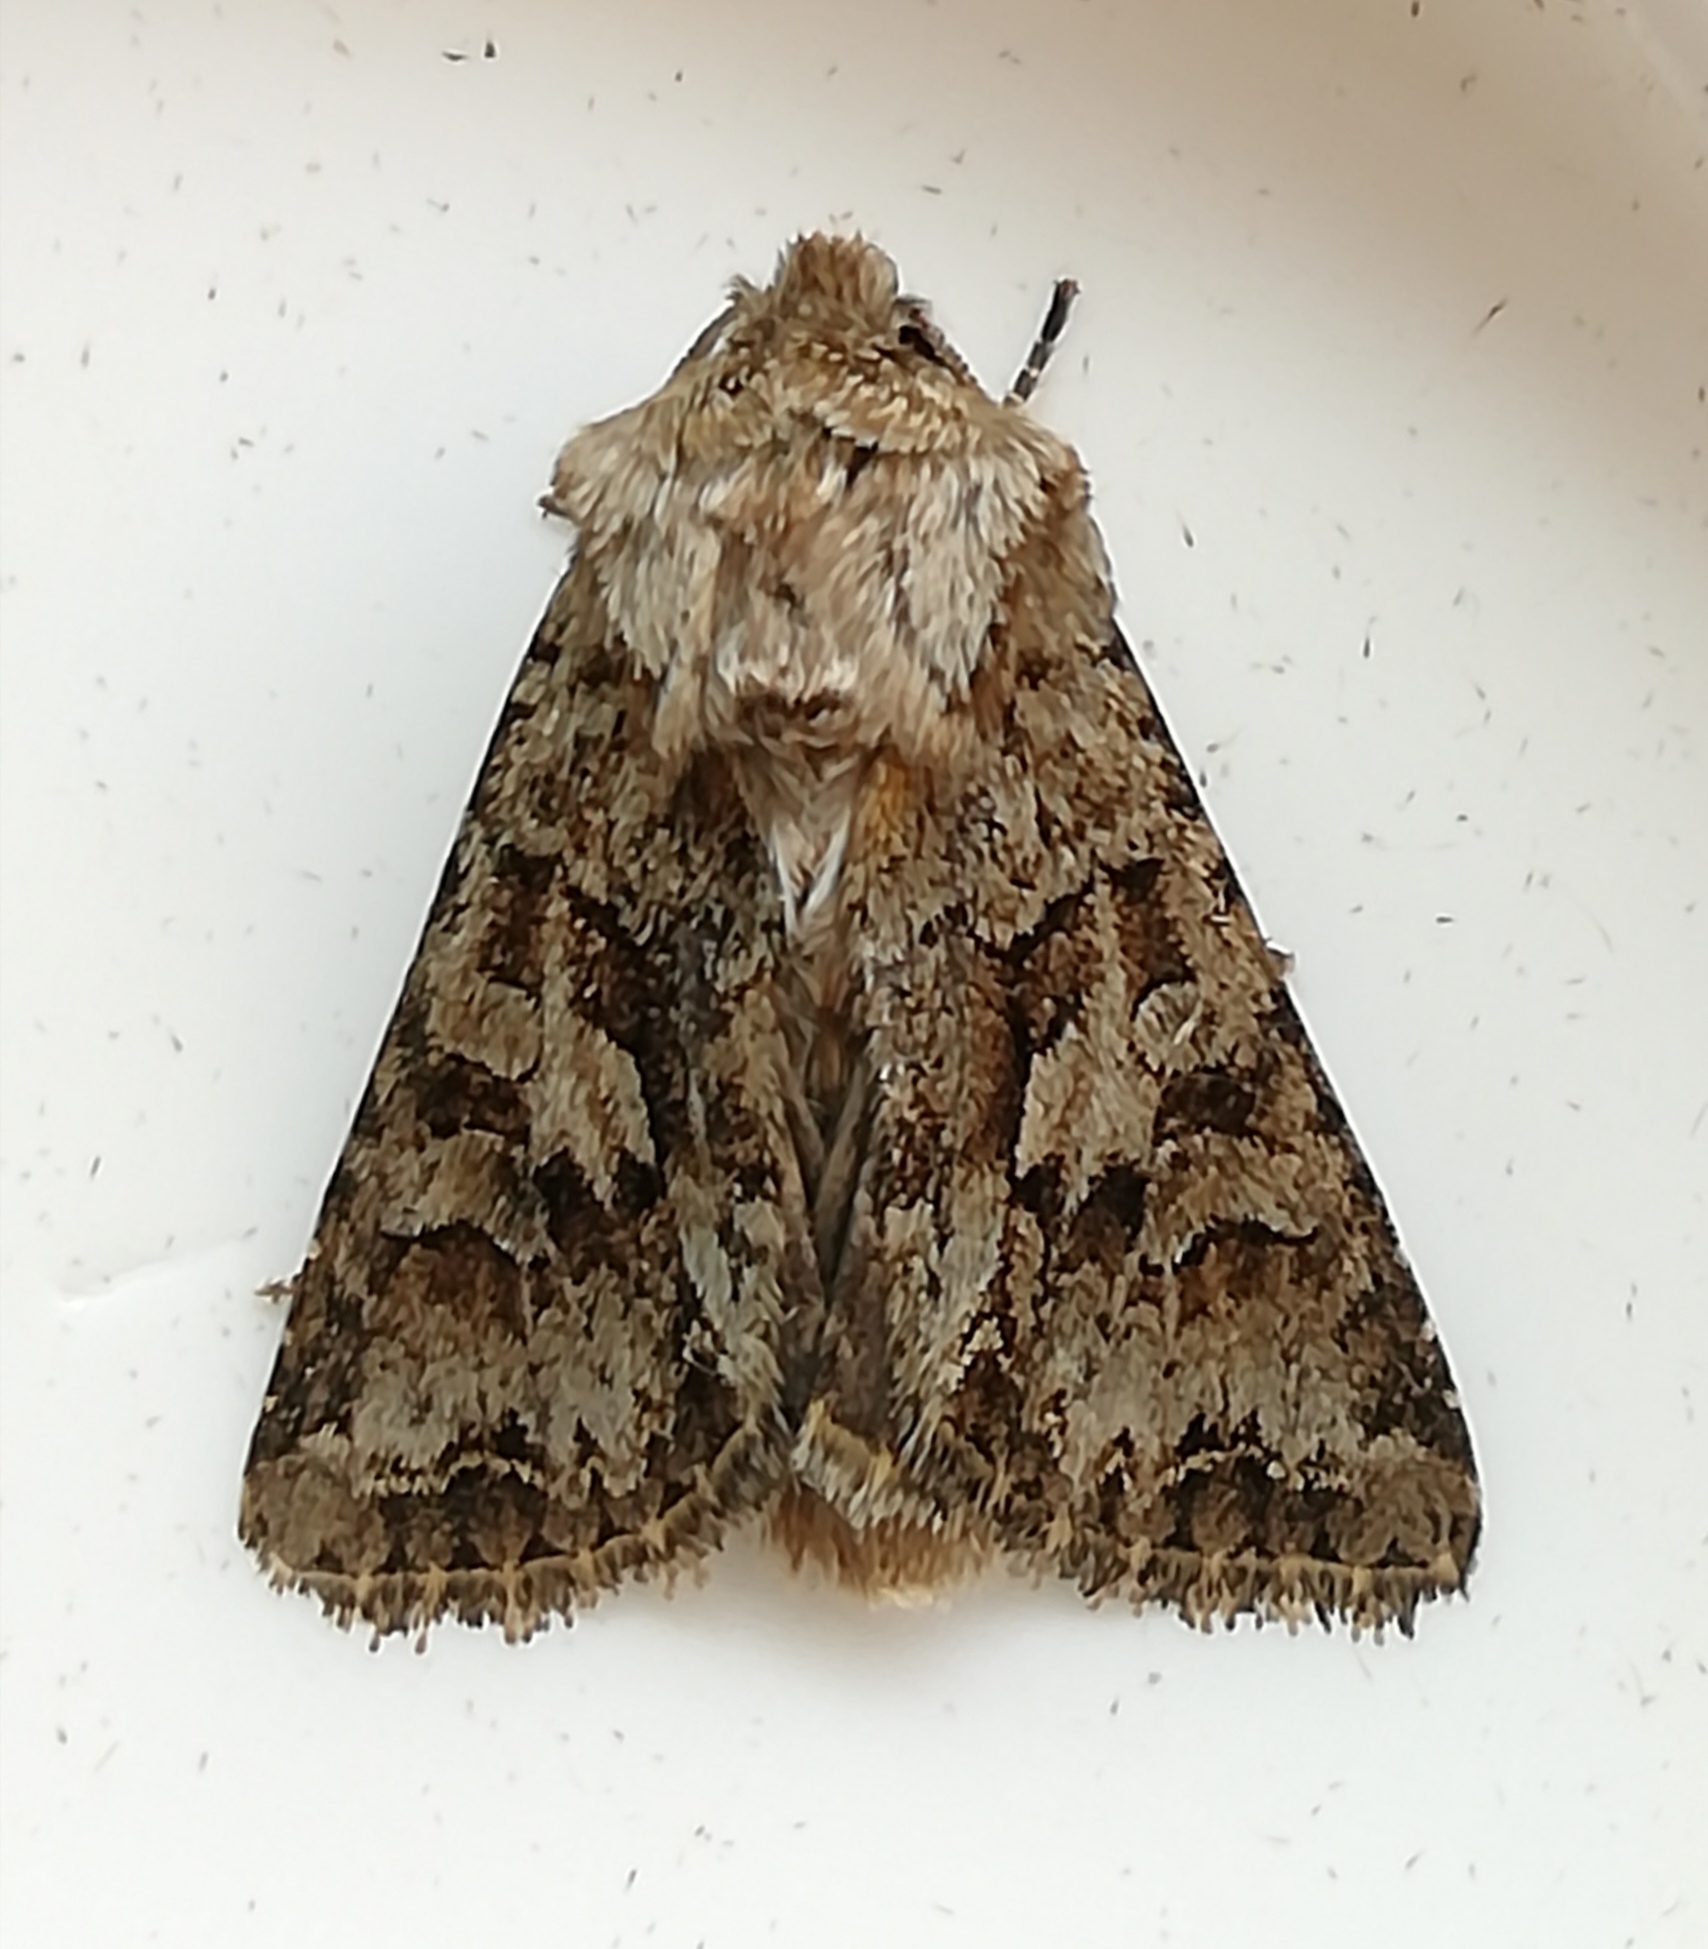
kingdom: Animalia
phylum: Arthropoda
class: Insecta
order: Lepidoptera
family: Noctuidae
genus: Hada
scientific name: Hada plebeja
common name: Shears
